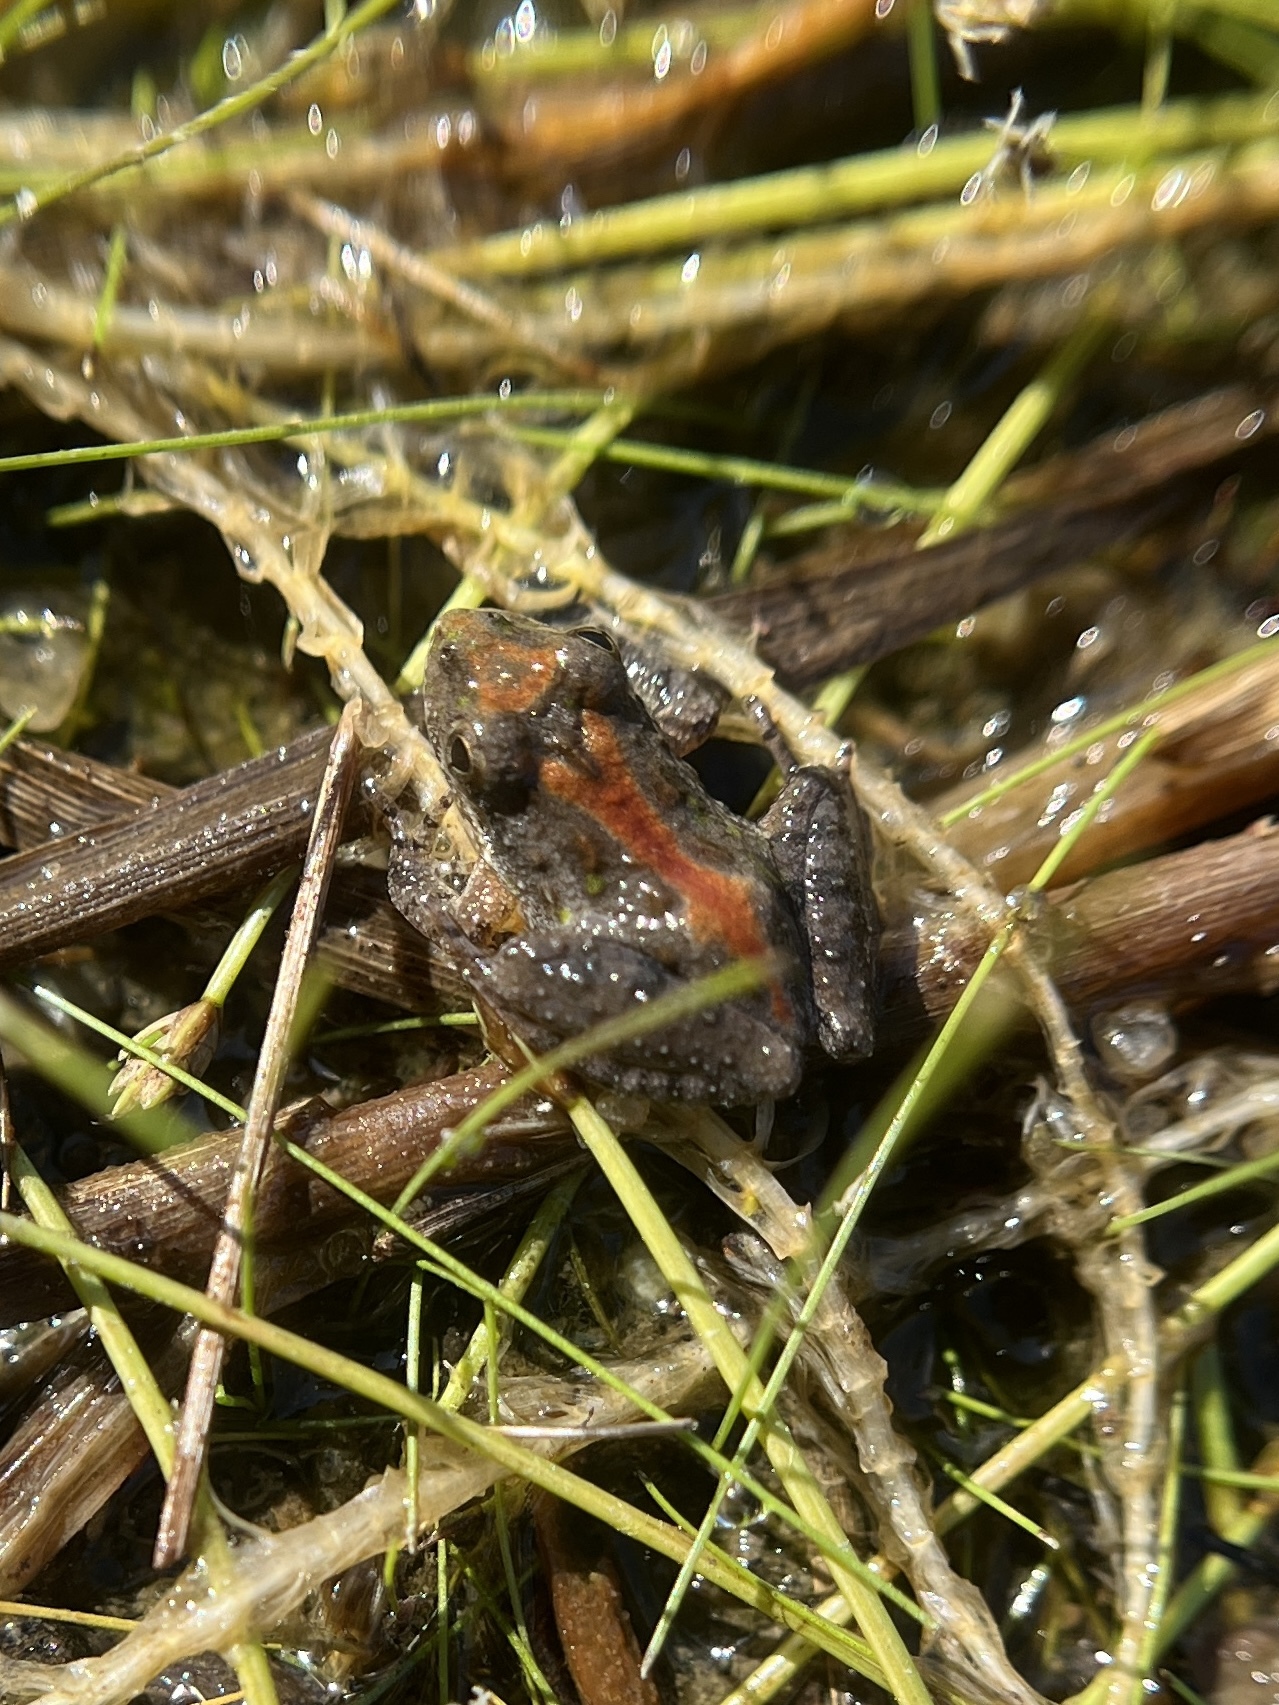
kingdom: Animalia
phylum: Chordata
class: Amphibia
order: Anura
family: Hylidae
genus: Acris
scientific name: Acris gryllus
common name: Southern cricket frog
